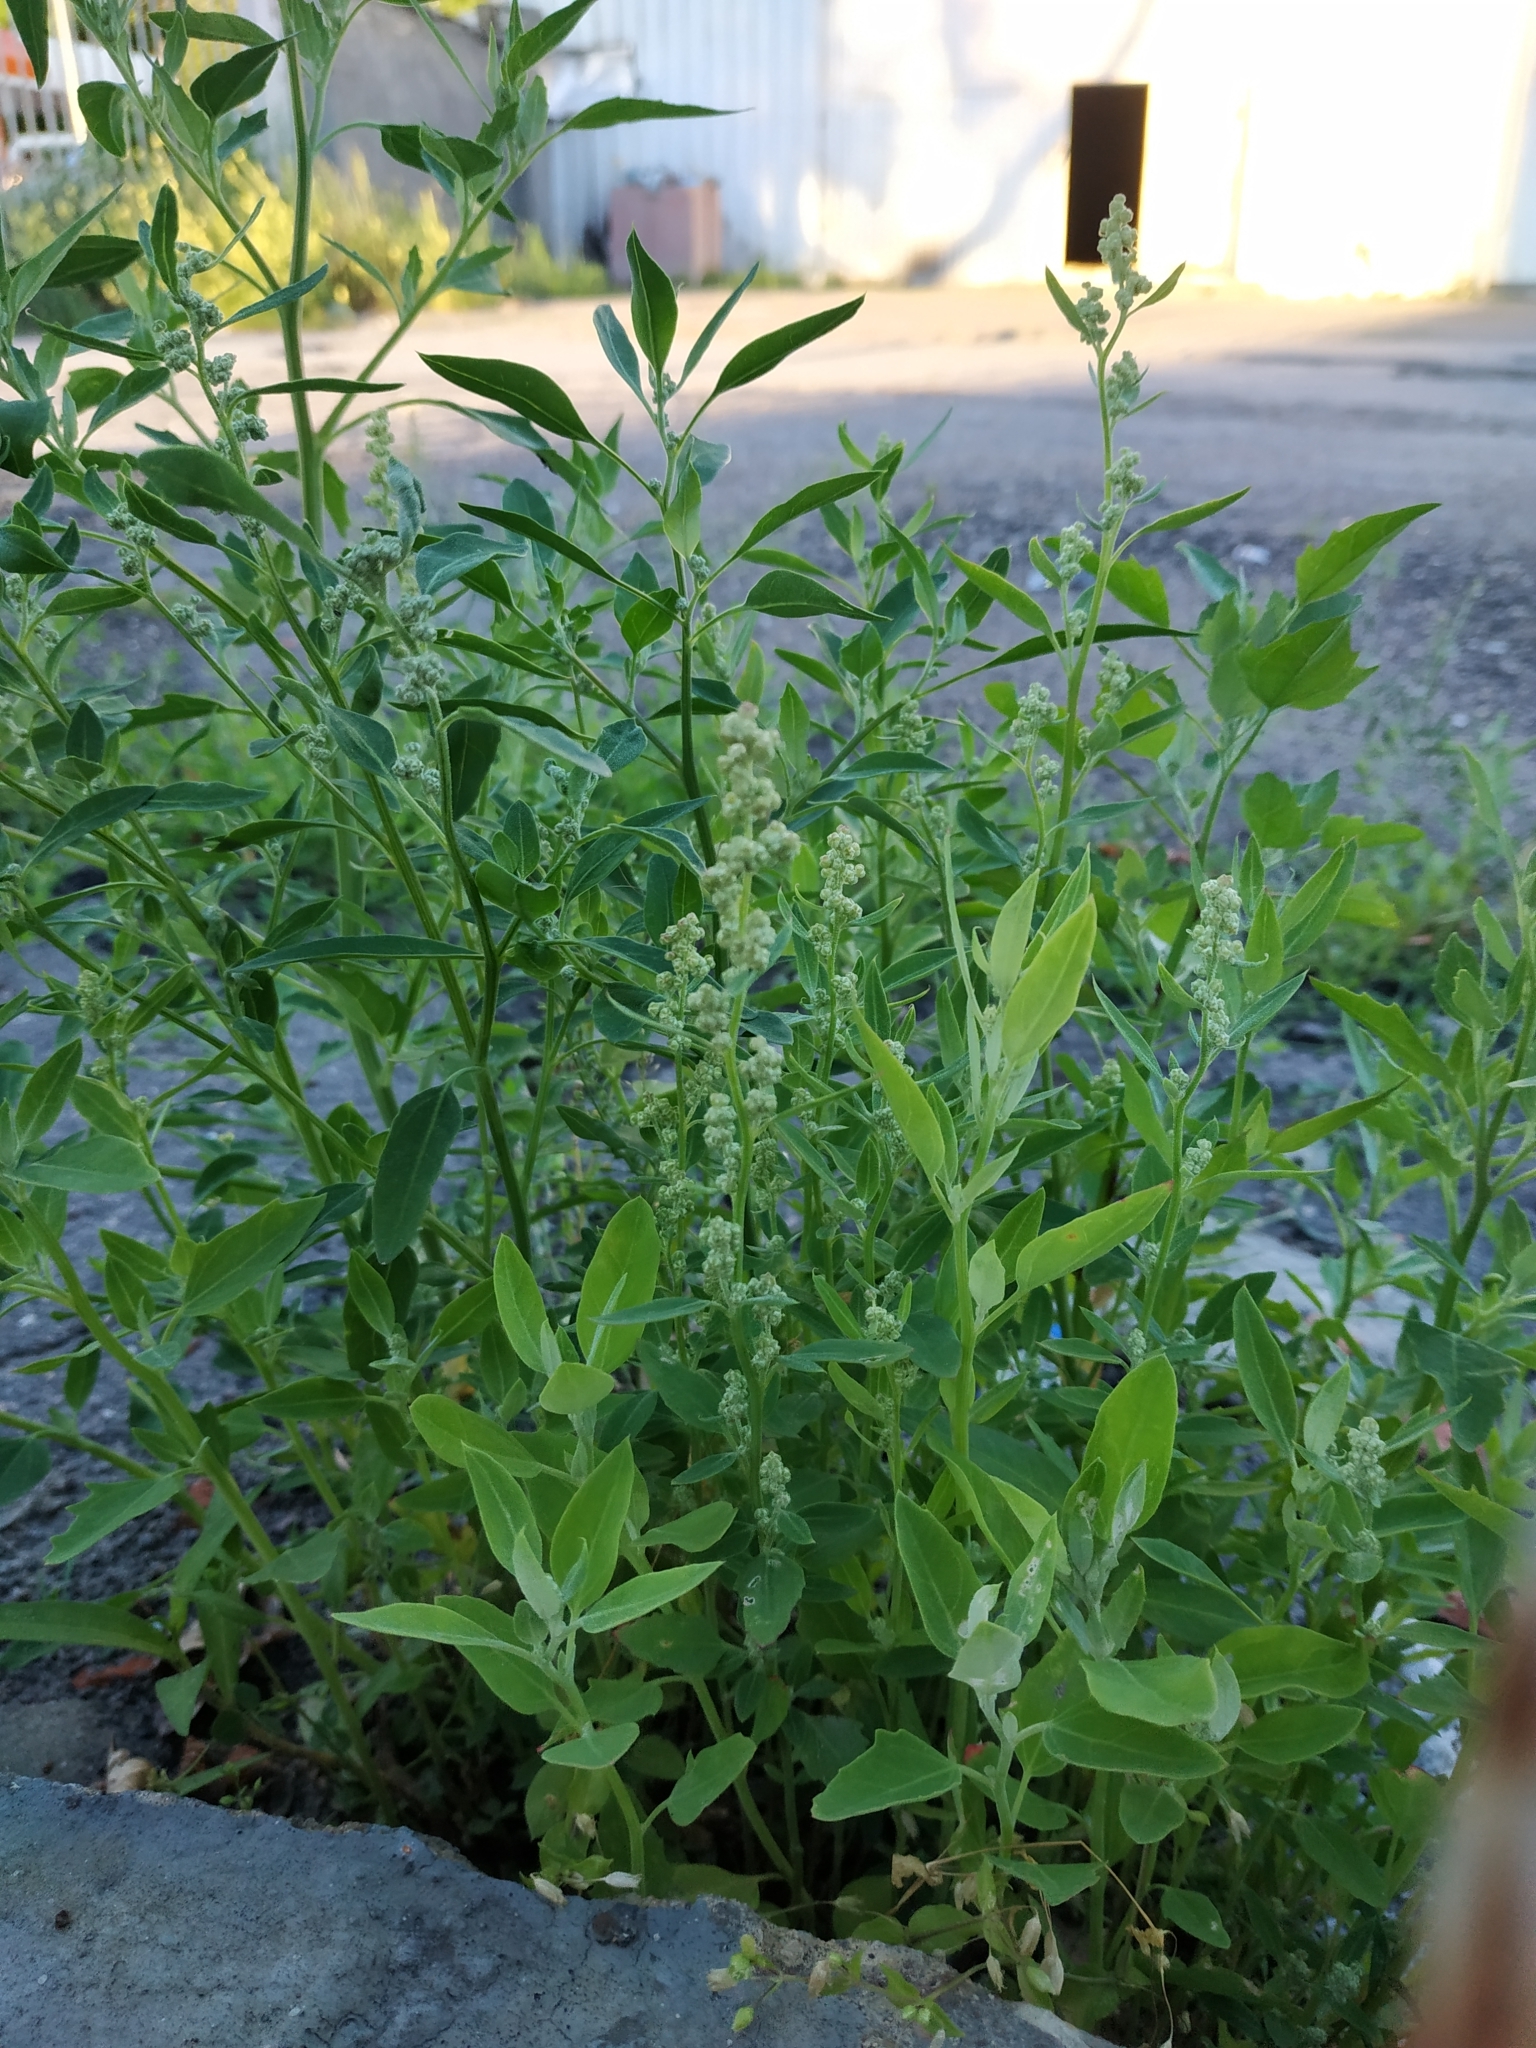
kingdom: Plantae
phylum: Tracheophyta
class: Magnoliopsida
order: Caryophyllales
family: Amaranthaceae
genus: Chenopodium
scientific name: Chenopodium album
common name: Fat-hen
